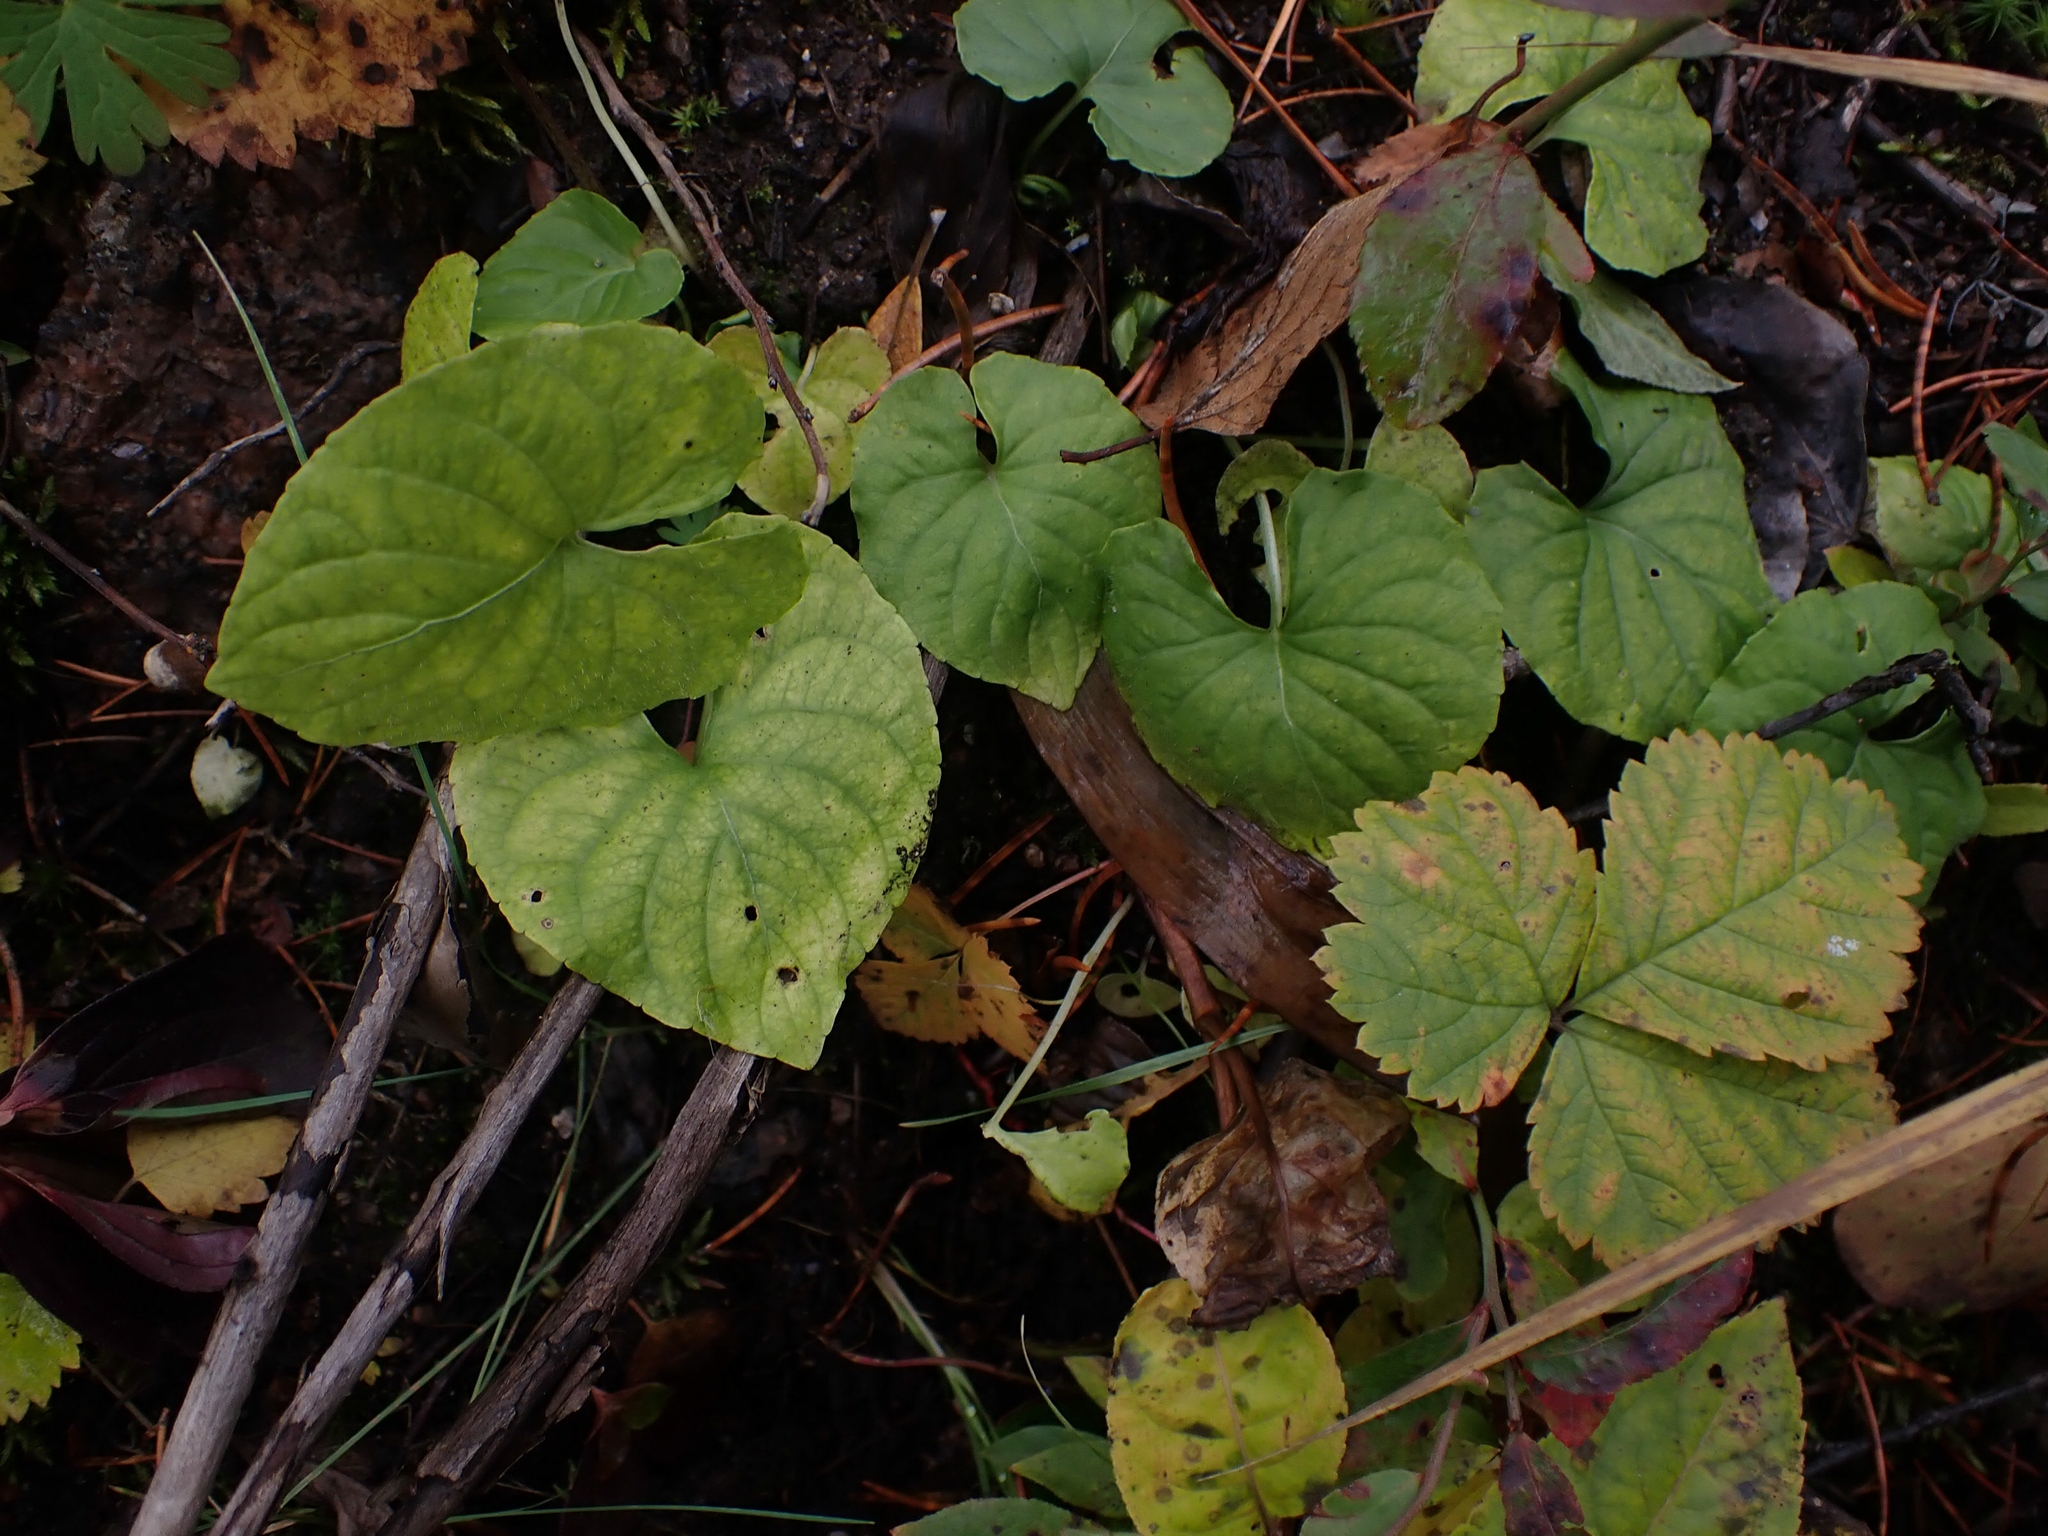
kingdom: Plantae
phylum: Tracheophyta
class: Magnoliopsida
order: Malpighiales
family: Violaceae
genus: Viola
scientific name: Viola renifolia
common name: Kidney-leaf violet
